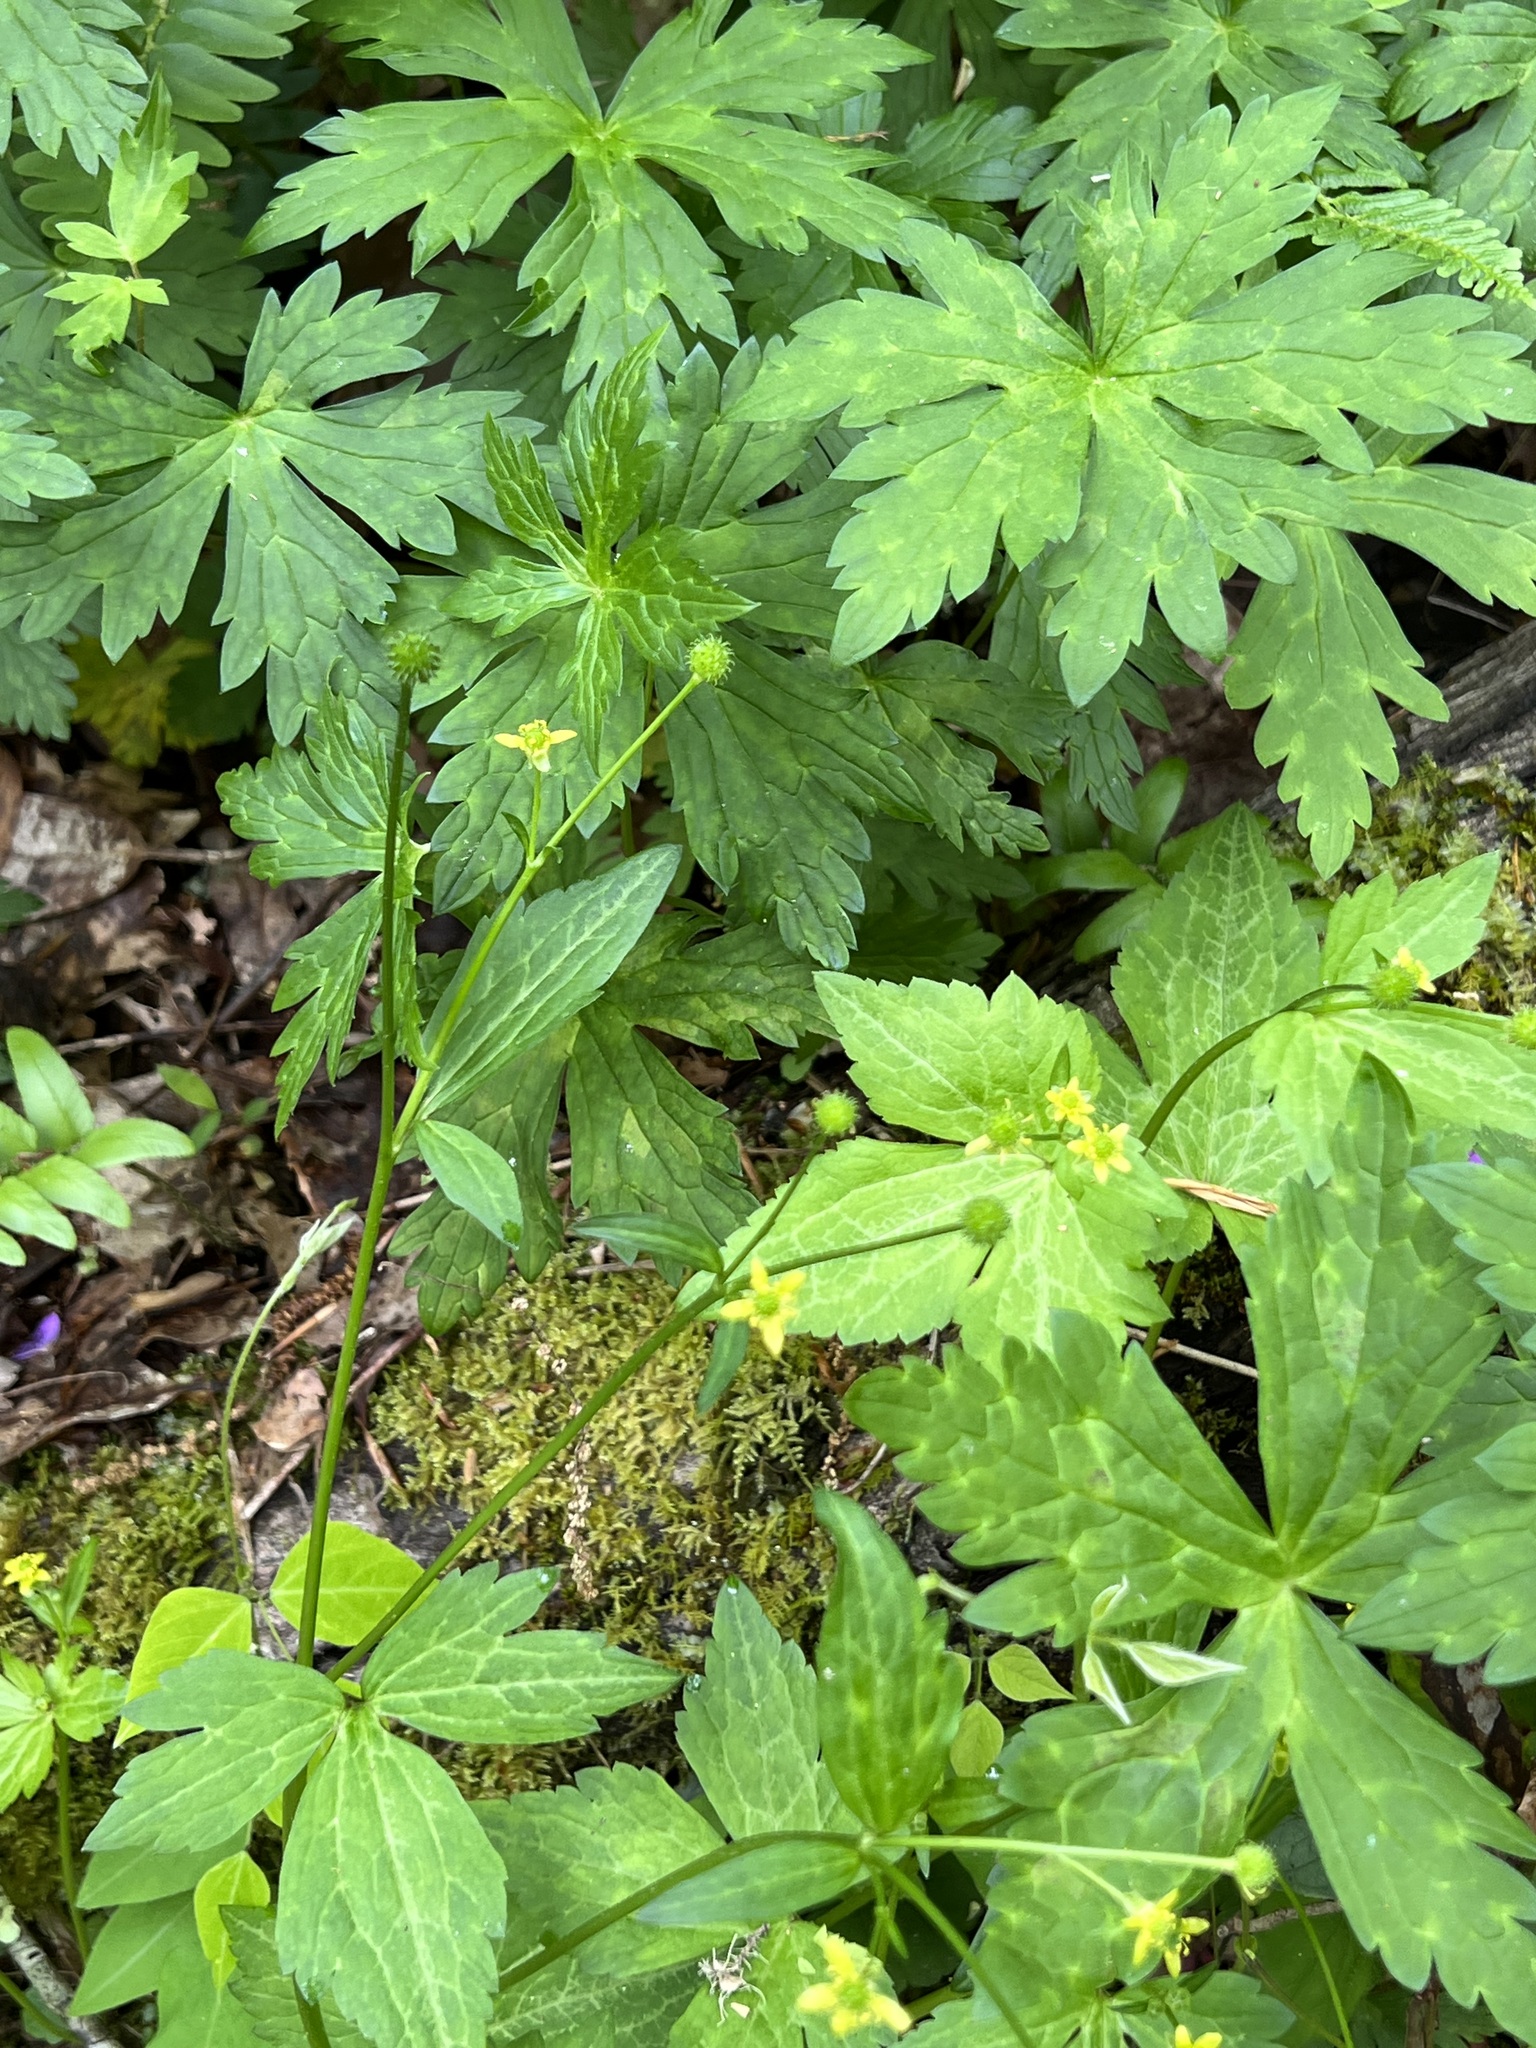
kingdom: Plantae
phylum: Tracheophyta
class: Magnoliopsida
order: Ranunculales
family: Ranunculaceae
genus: Ranunculus
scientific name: Ranunculus recurvatus
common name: Blisterwort
